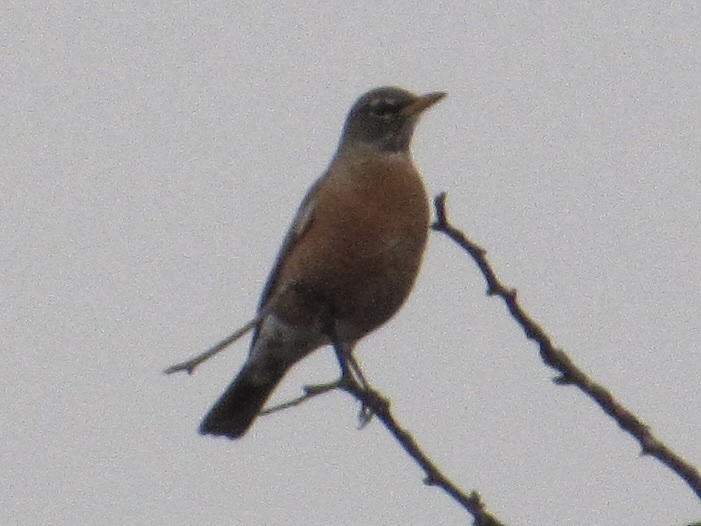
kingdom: Animalia
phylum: Chordata
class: Aves
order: Passeriformes
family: Turdidae
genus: Turdus
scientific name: Turdus migratorius
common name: American robin
